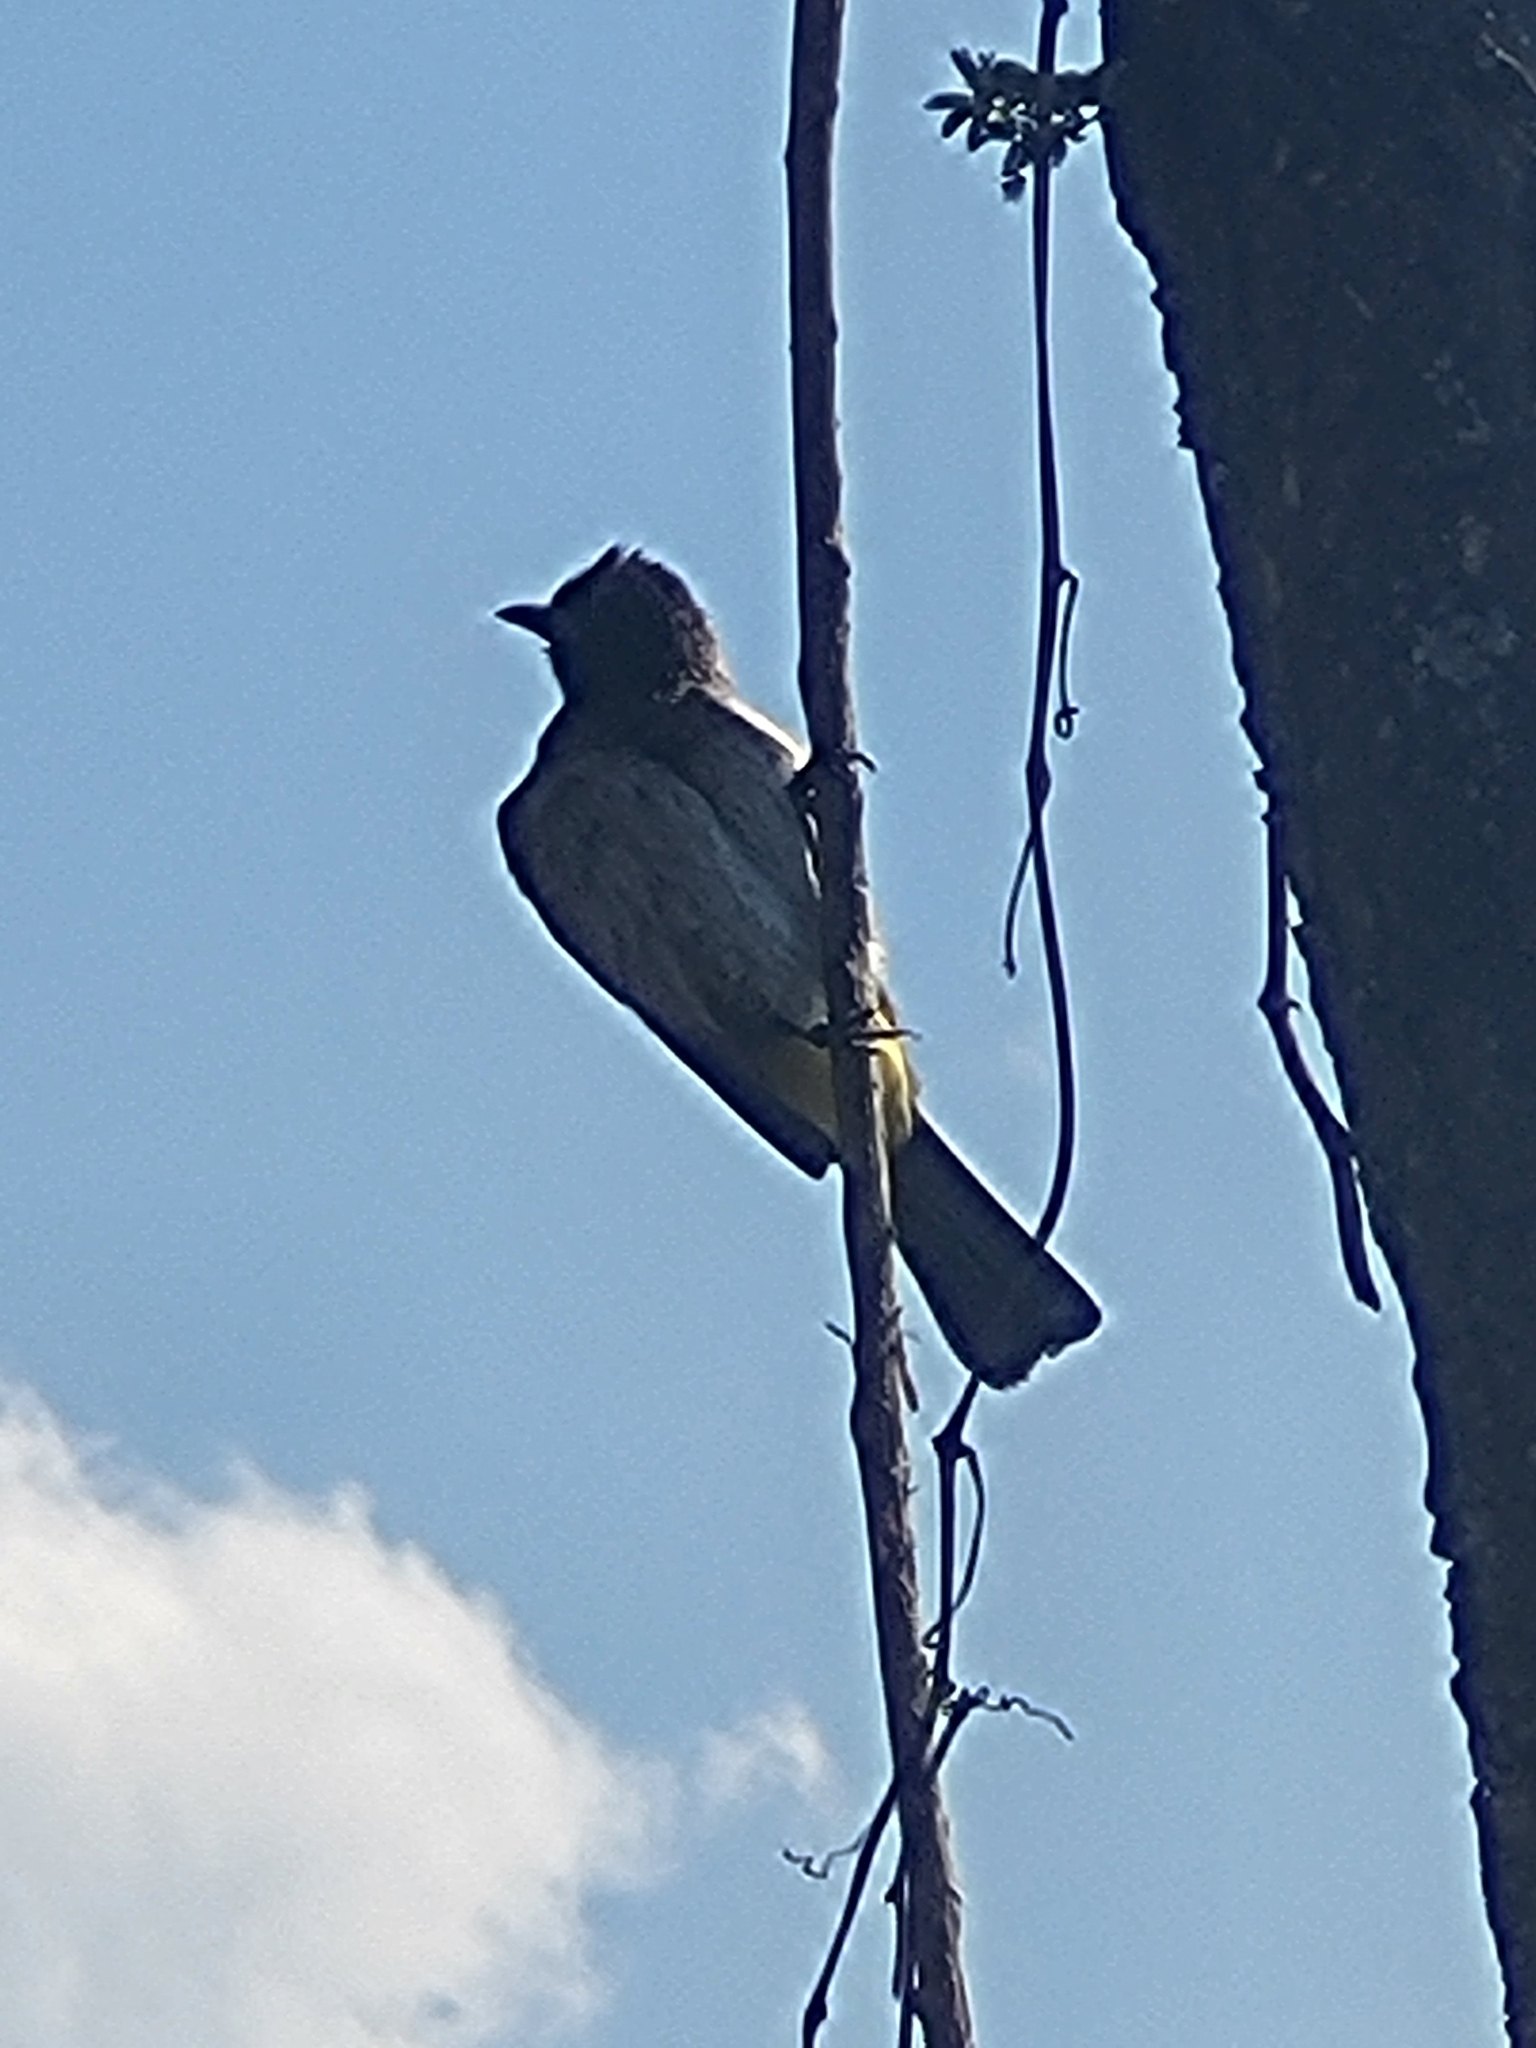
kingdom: Animalia
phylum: Chordata
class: Aves
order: Passeriformes
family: Pycnonotidae
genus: Pycnonotus
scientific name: Pycnonotus barbatus
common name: Common bulbul
